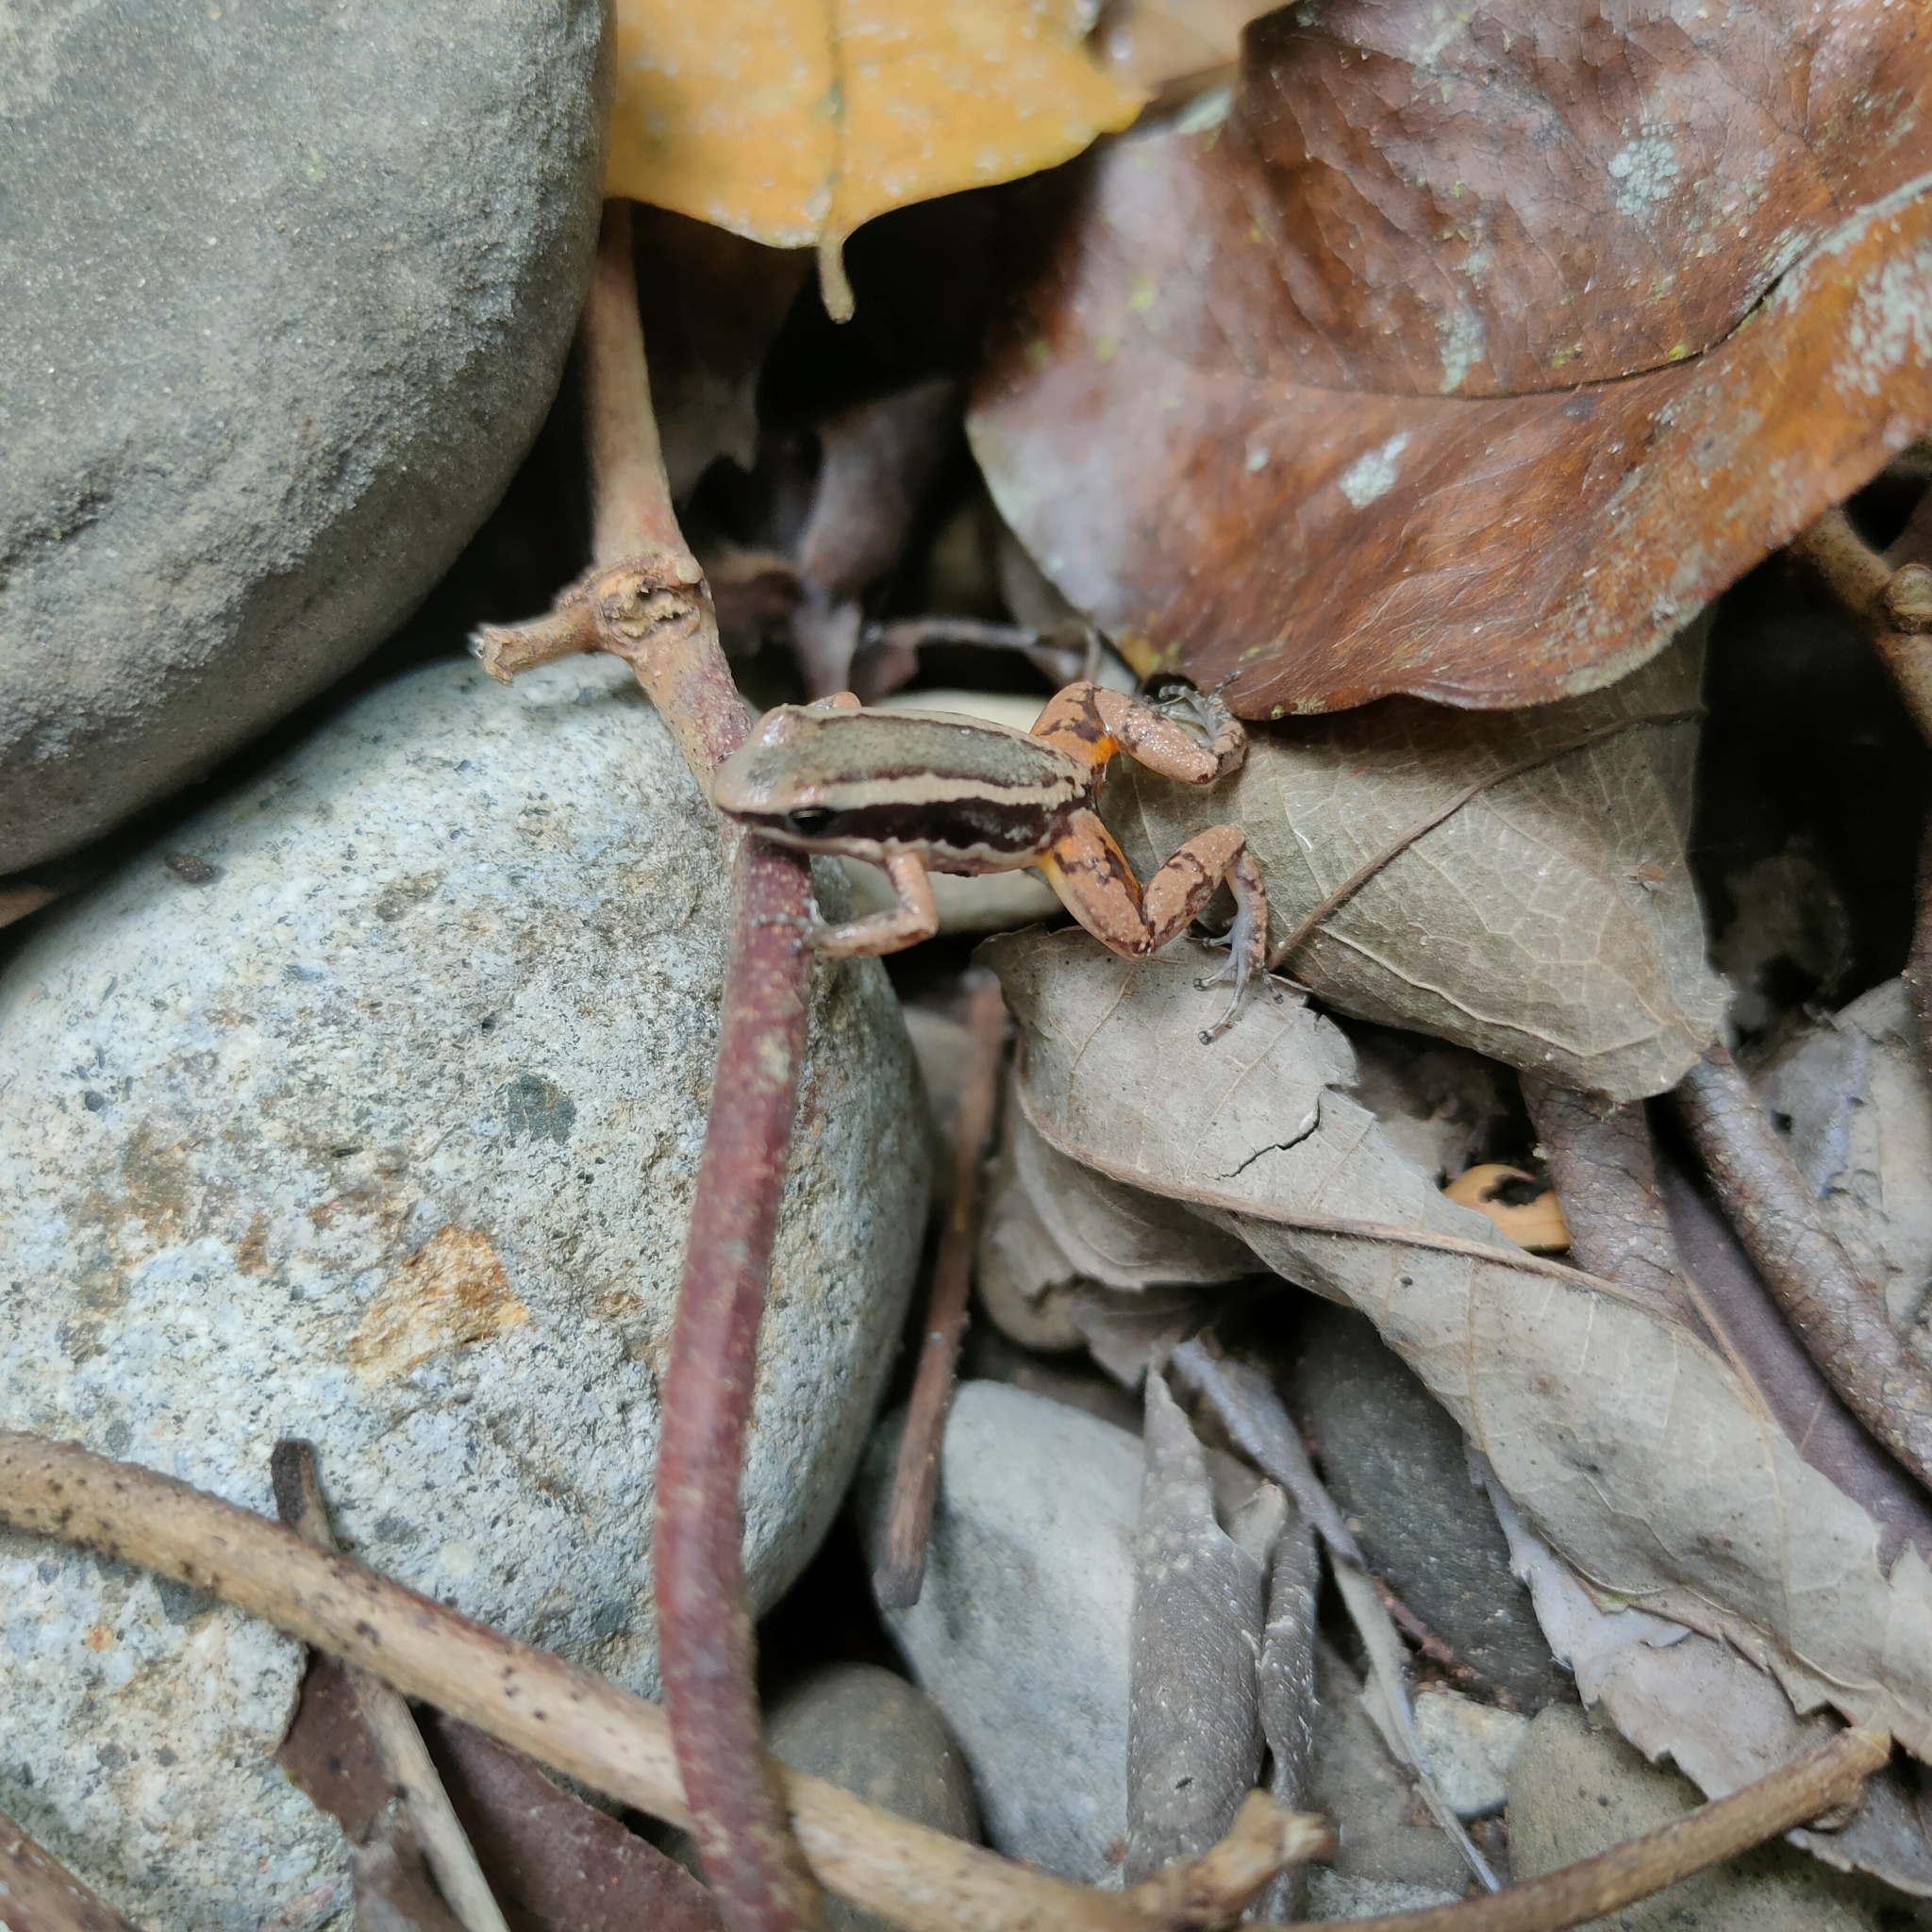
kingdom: Animalia
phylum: Chordata
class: Amphibia
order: Anura
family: Aromobatidae
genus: Allobates
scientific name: Allobates talamancae
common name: Talamanca rocket frog
